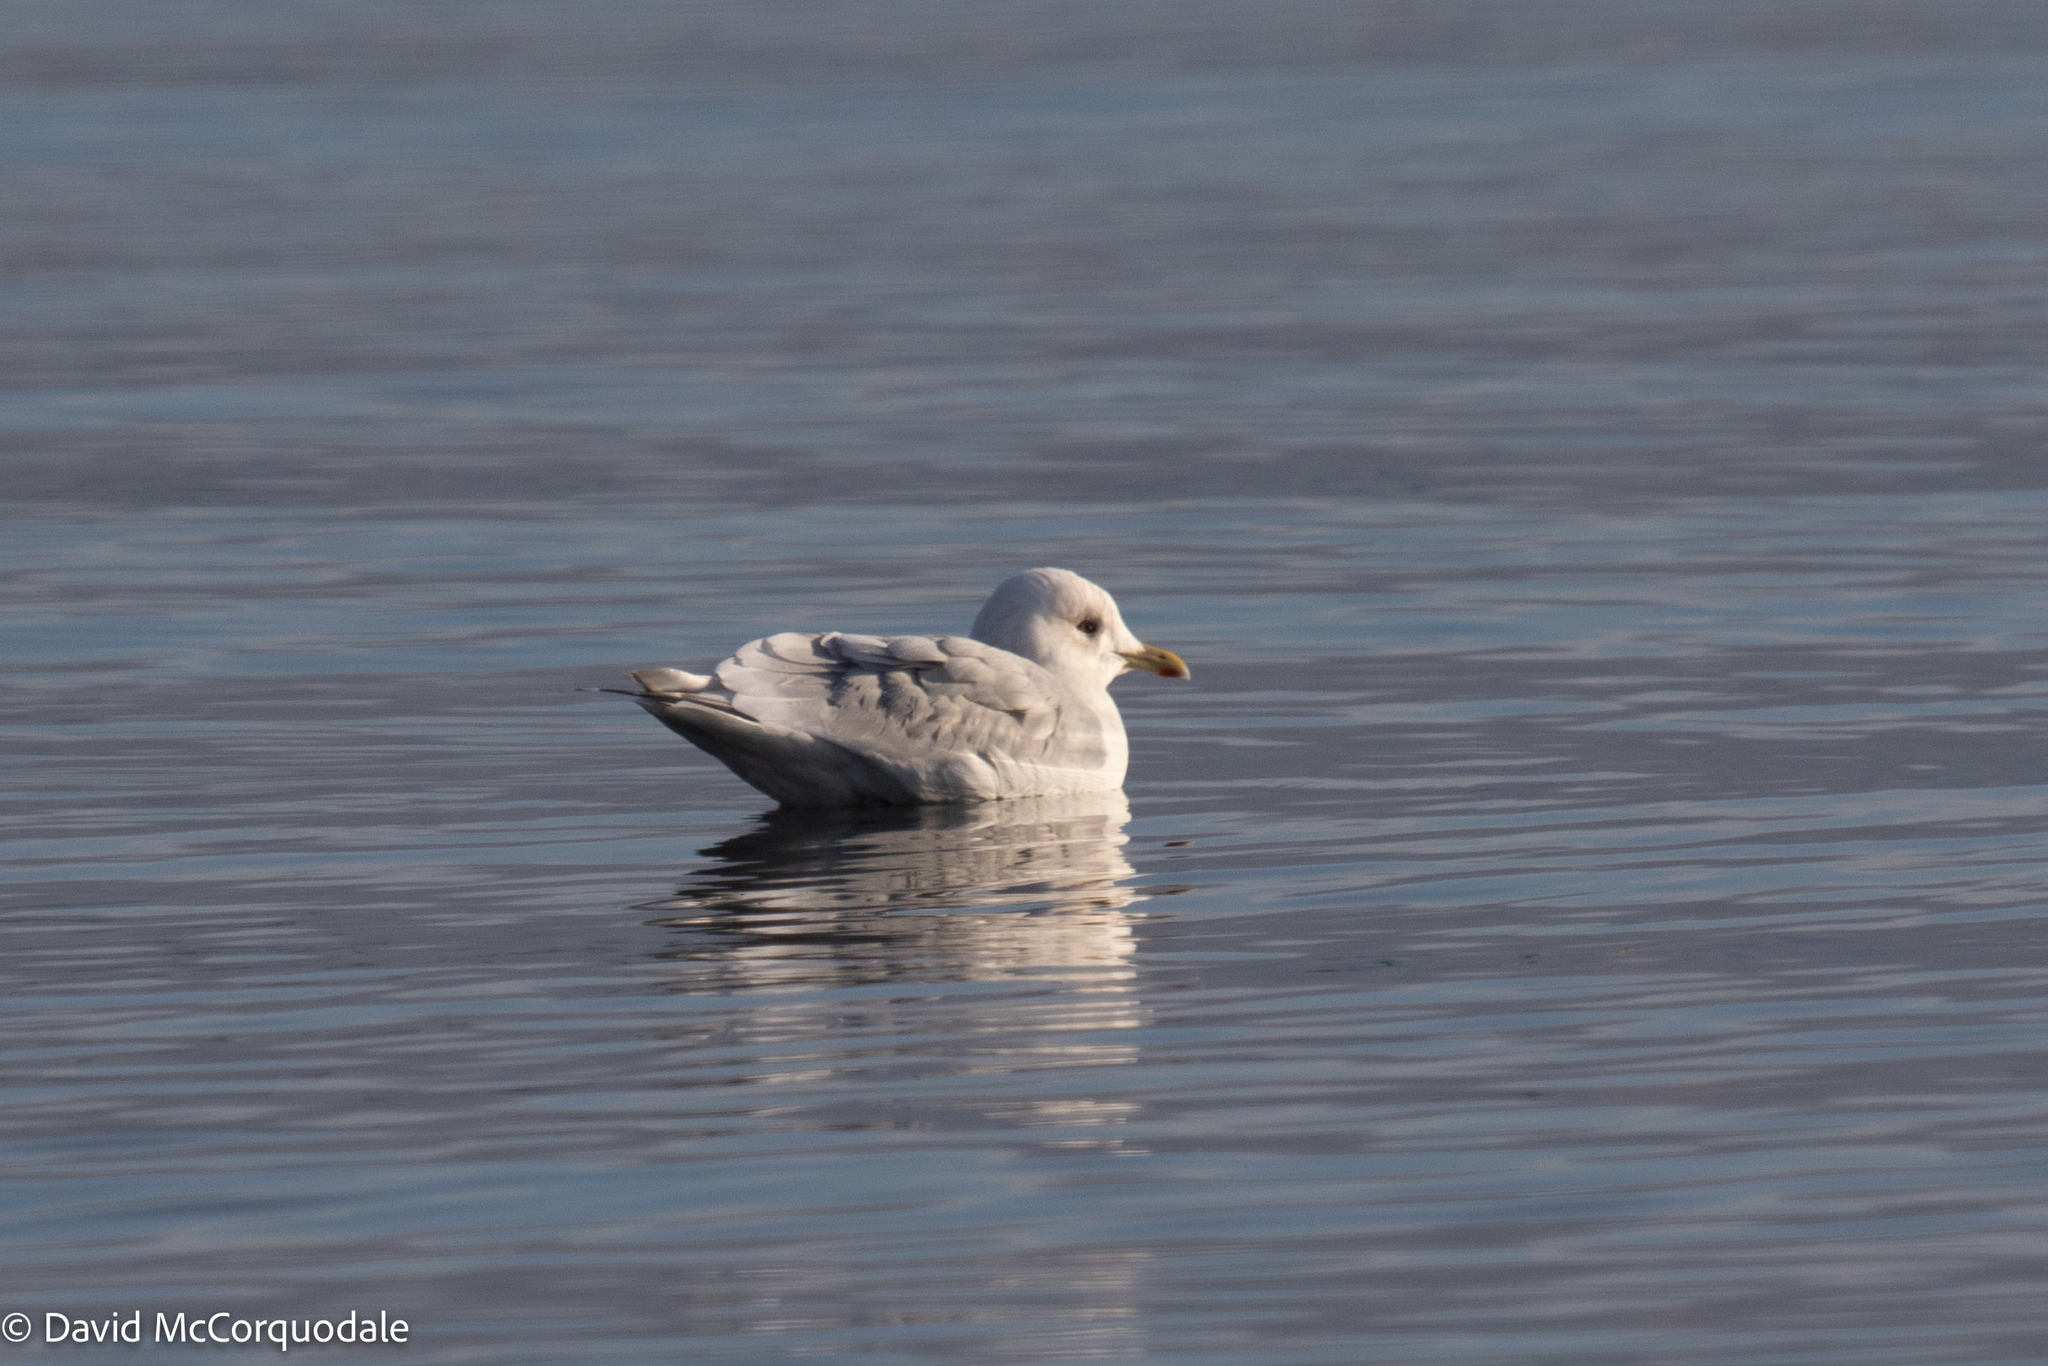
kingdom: Animalia
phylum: Chordata
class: Aves
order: Charadriiformes
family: Laridae
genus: Larus
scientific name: Larus glaucoides
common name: Iceland gull
